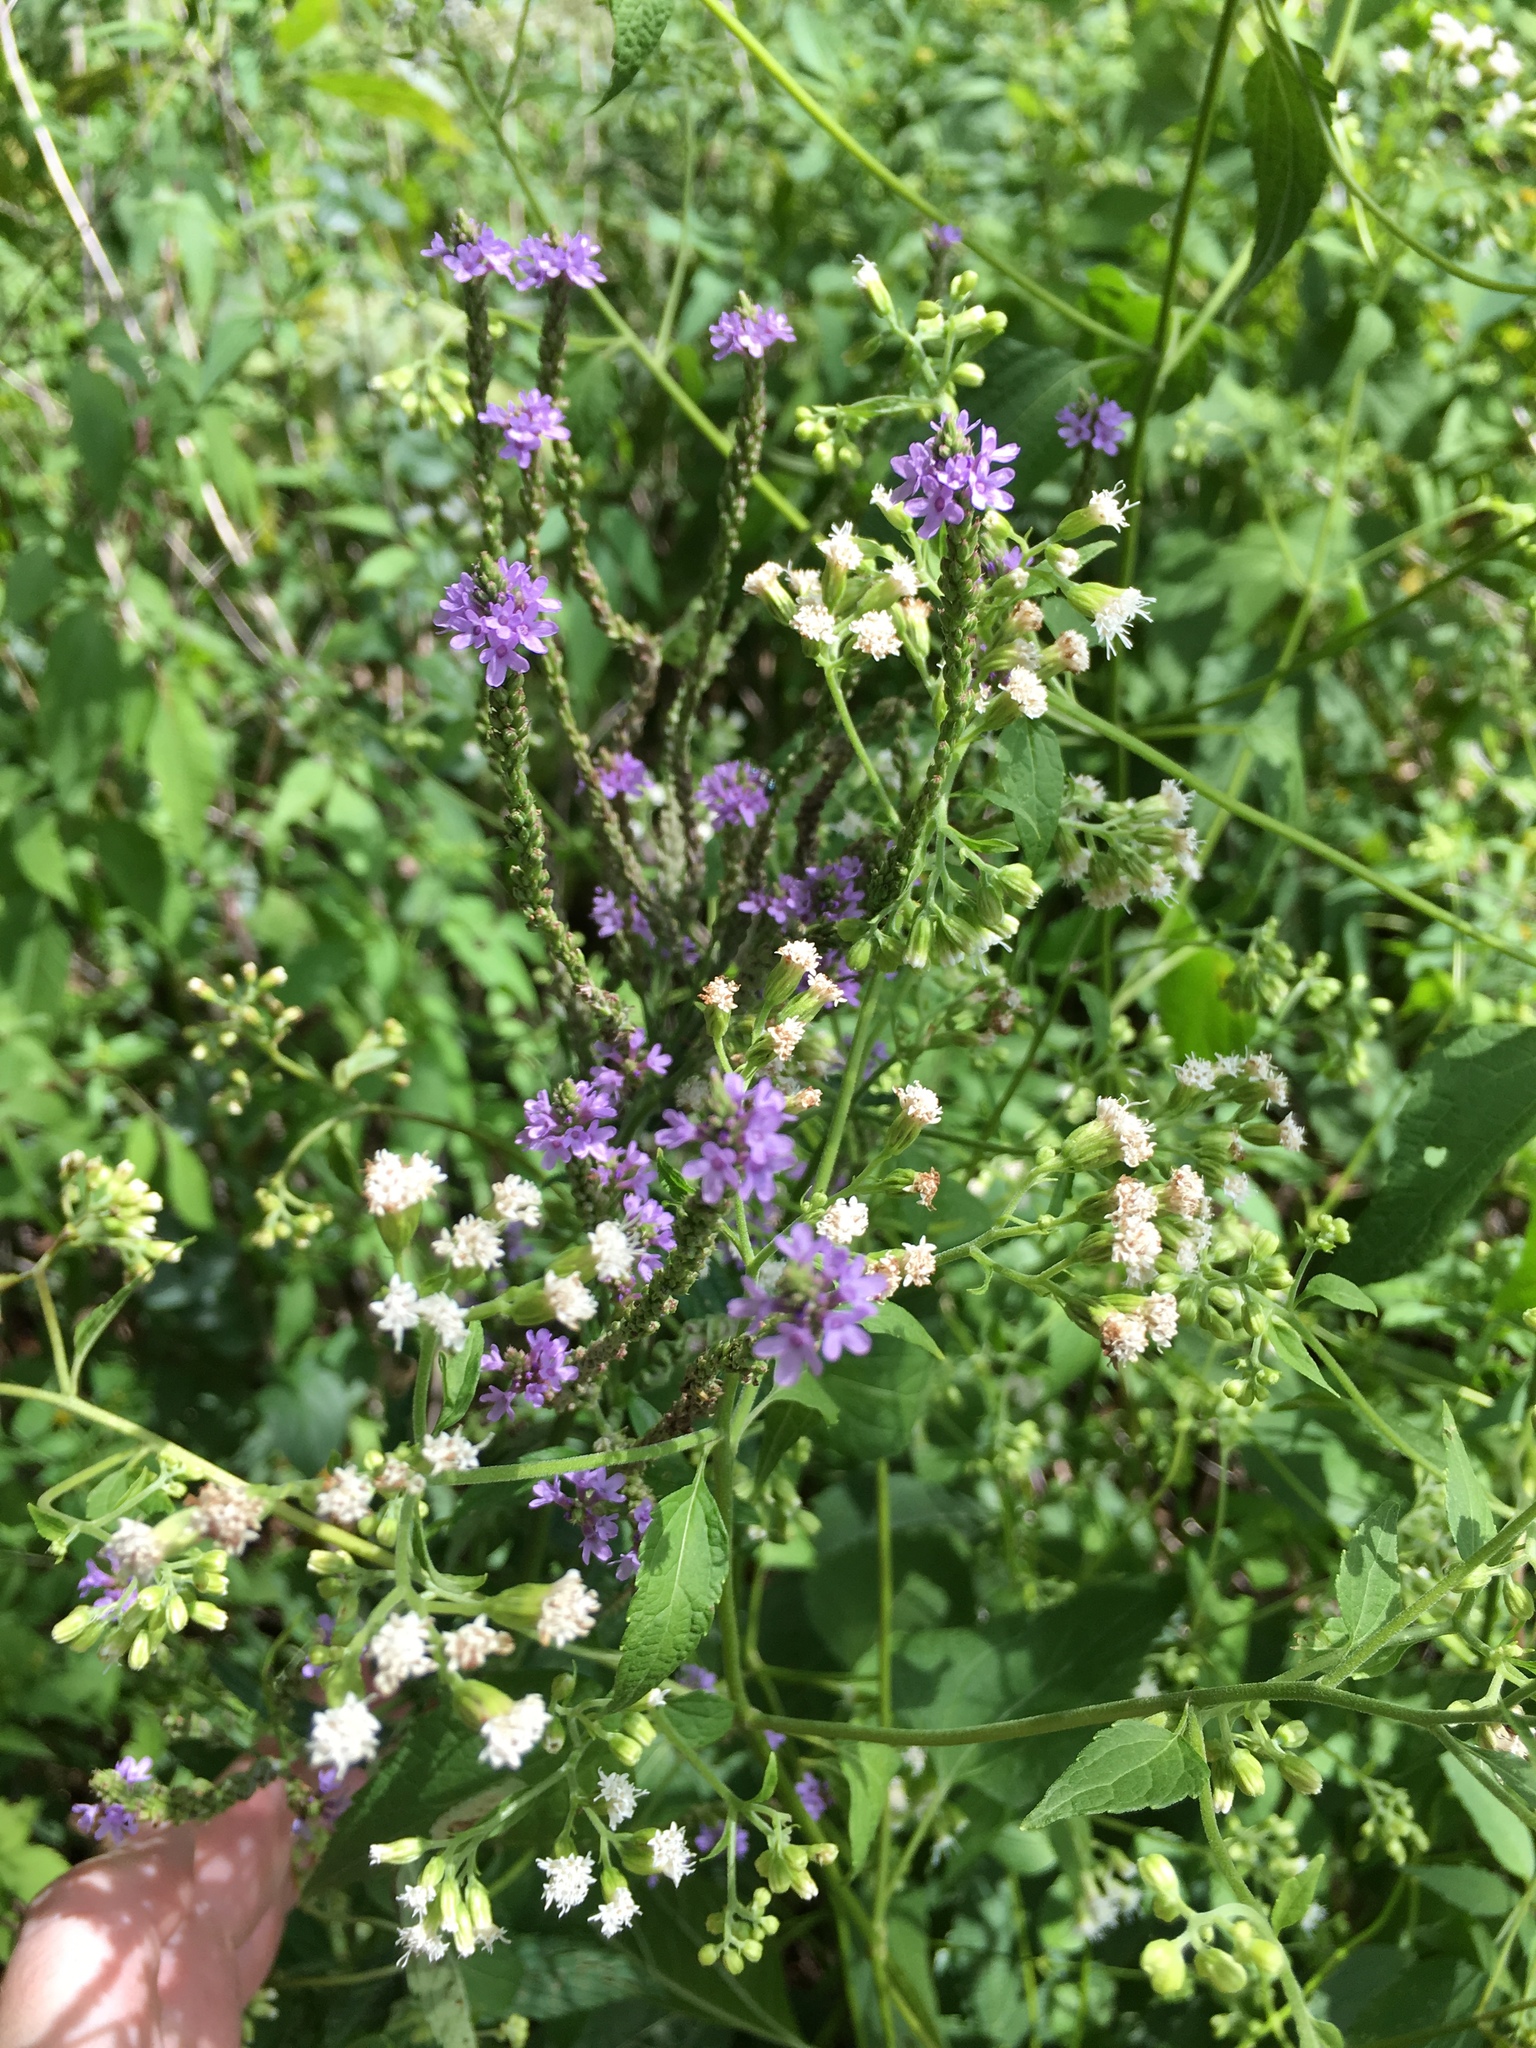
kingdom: Plantae
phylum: Tracheophyta
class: Magnoliopsida
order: Lamiales
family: Verbenaceae
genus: Verbena
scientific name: Verbena hastata
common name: American blue vervain
